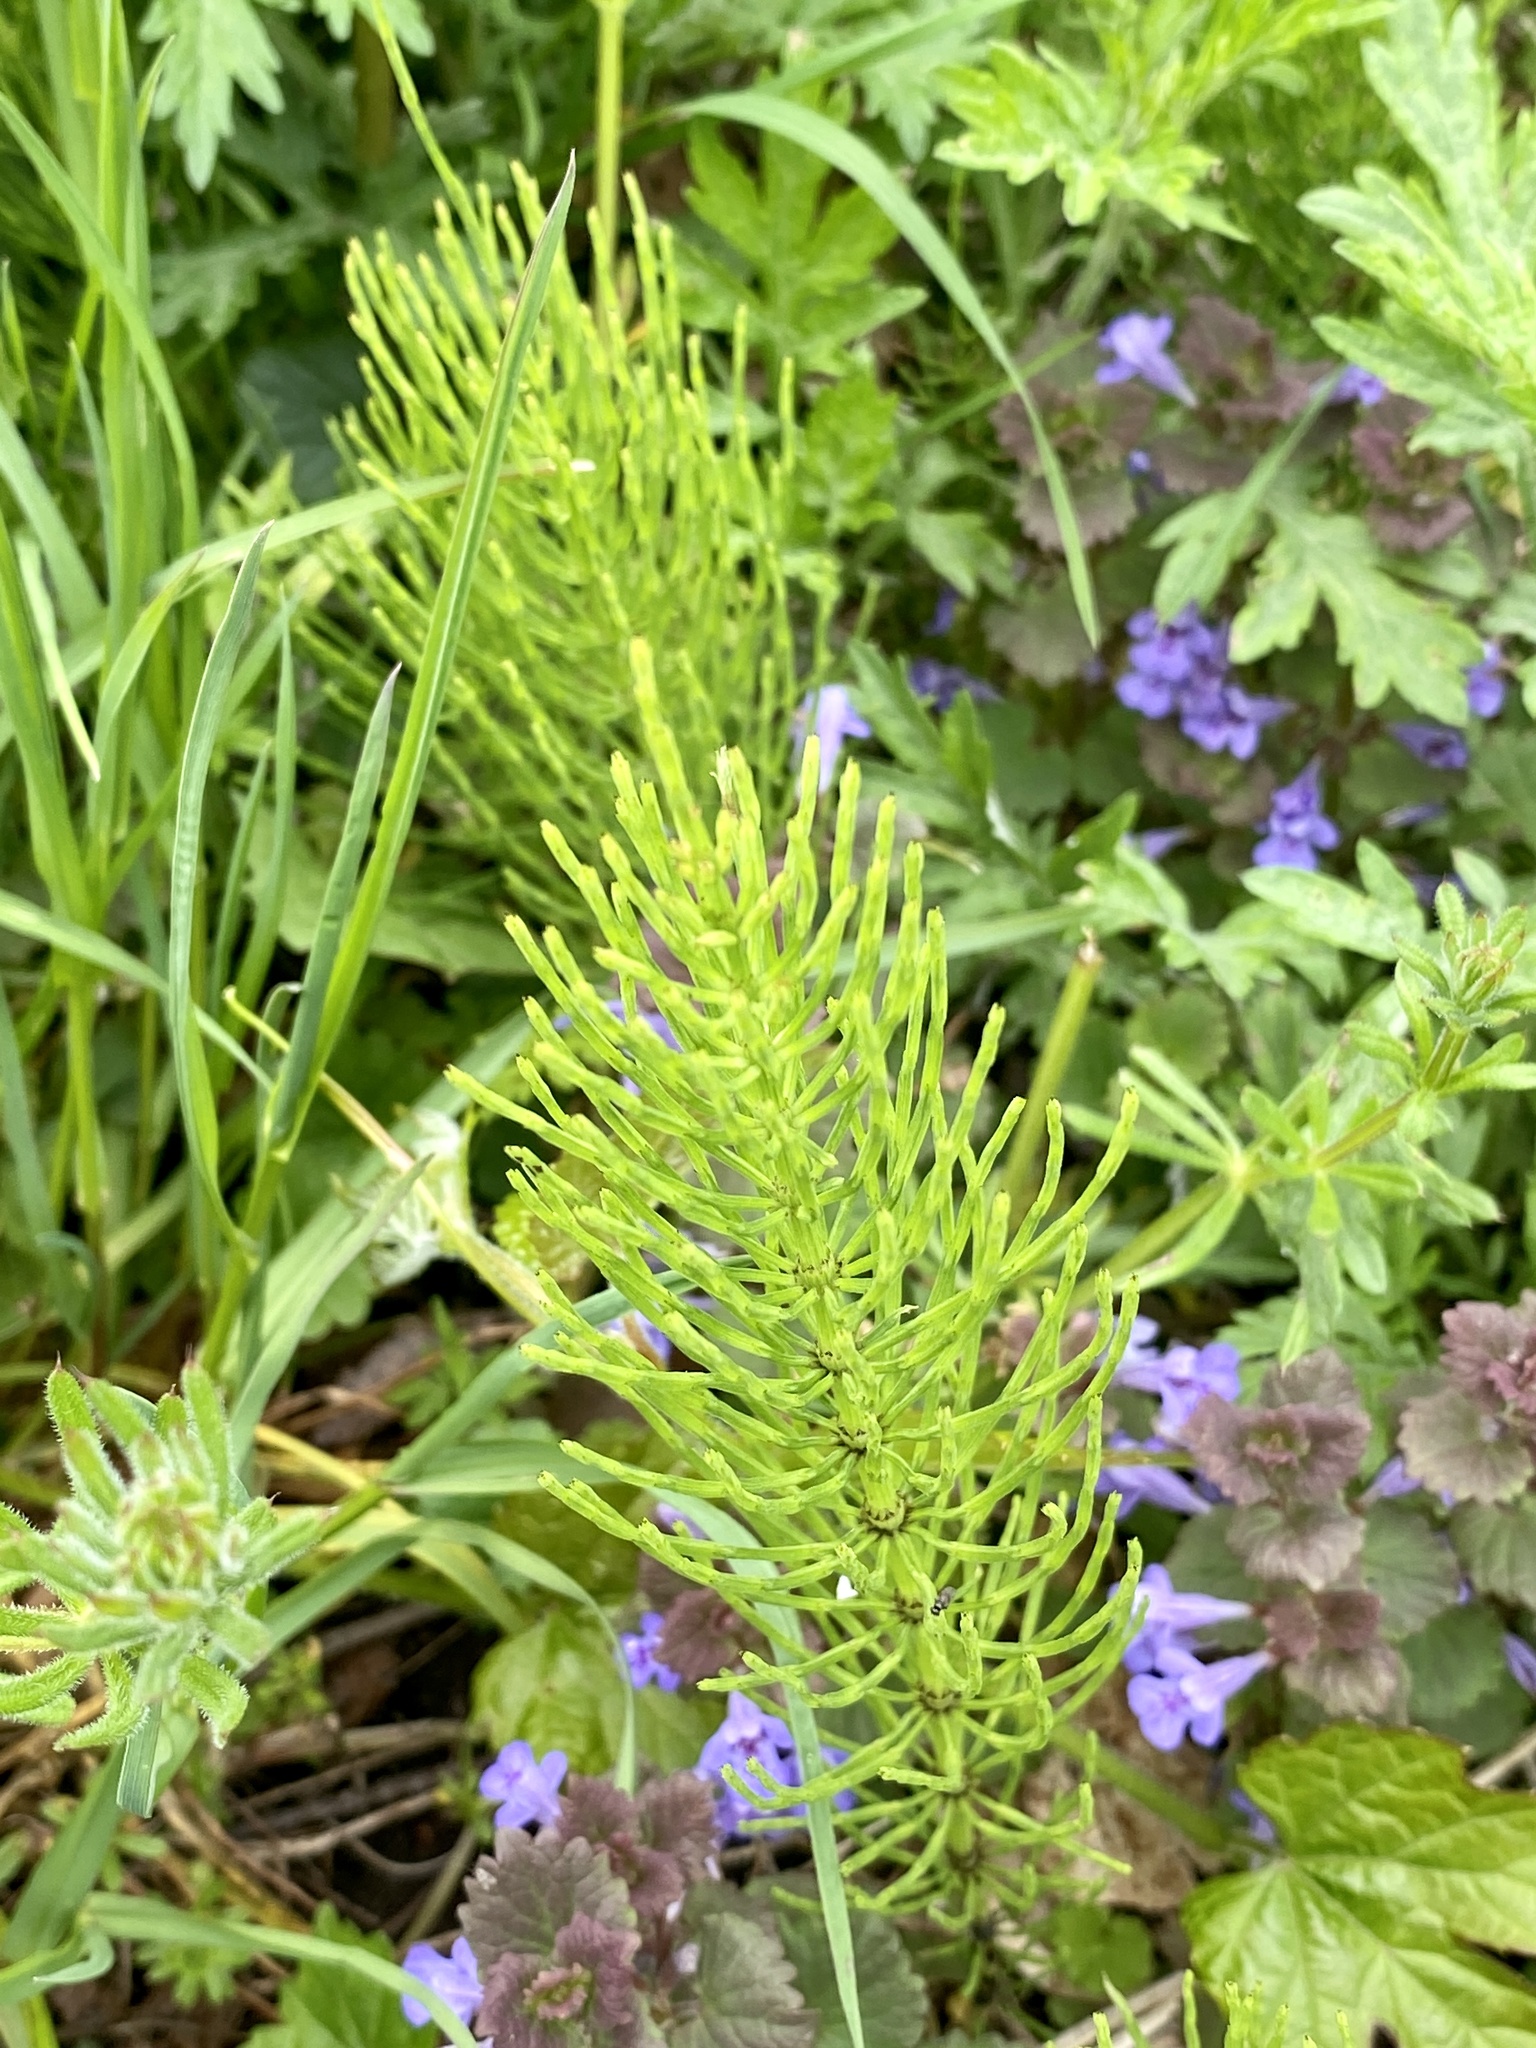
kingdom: Plantae
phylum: Tracheophyta
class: Polypodiopsida
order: Equisetales
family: Equisetaceae
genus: Equisetum
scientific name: Equisetum arvense
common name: Field horsetail
